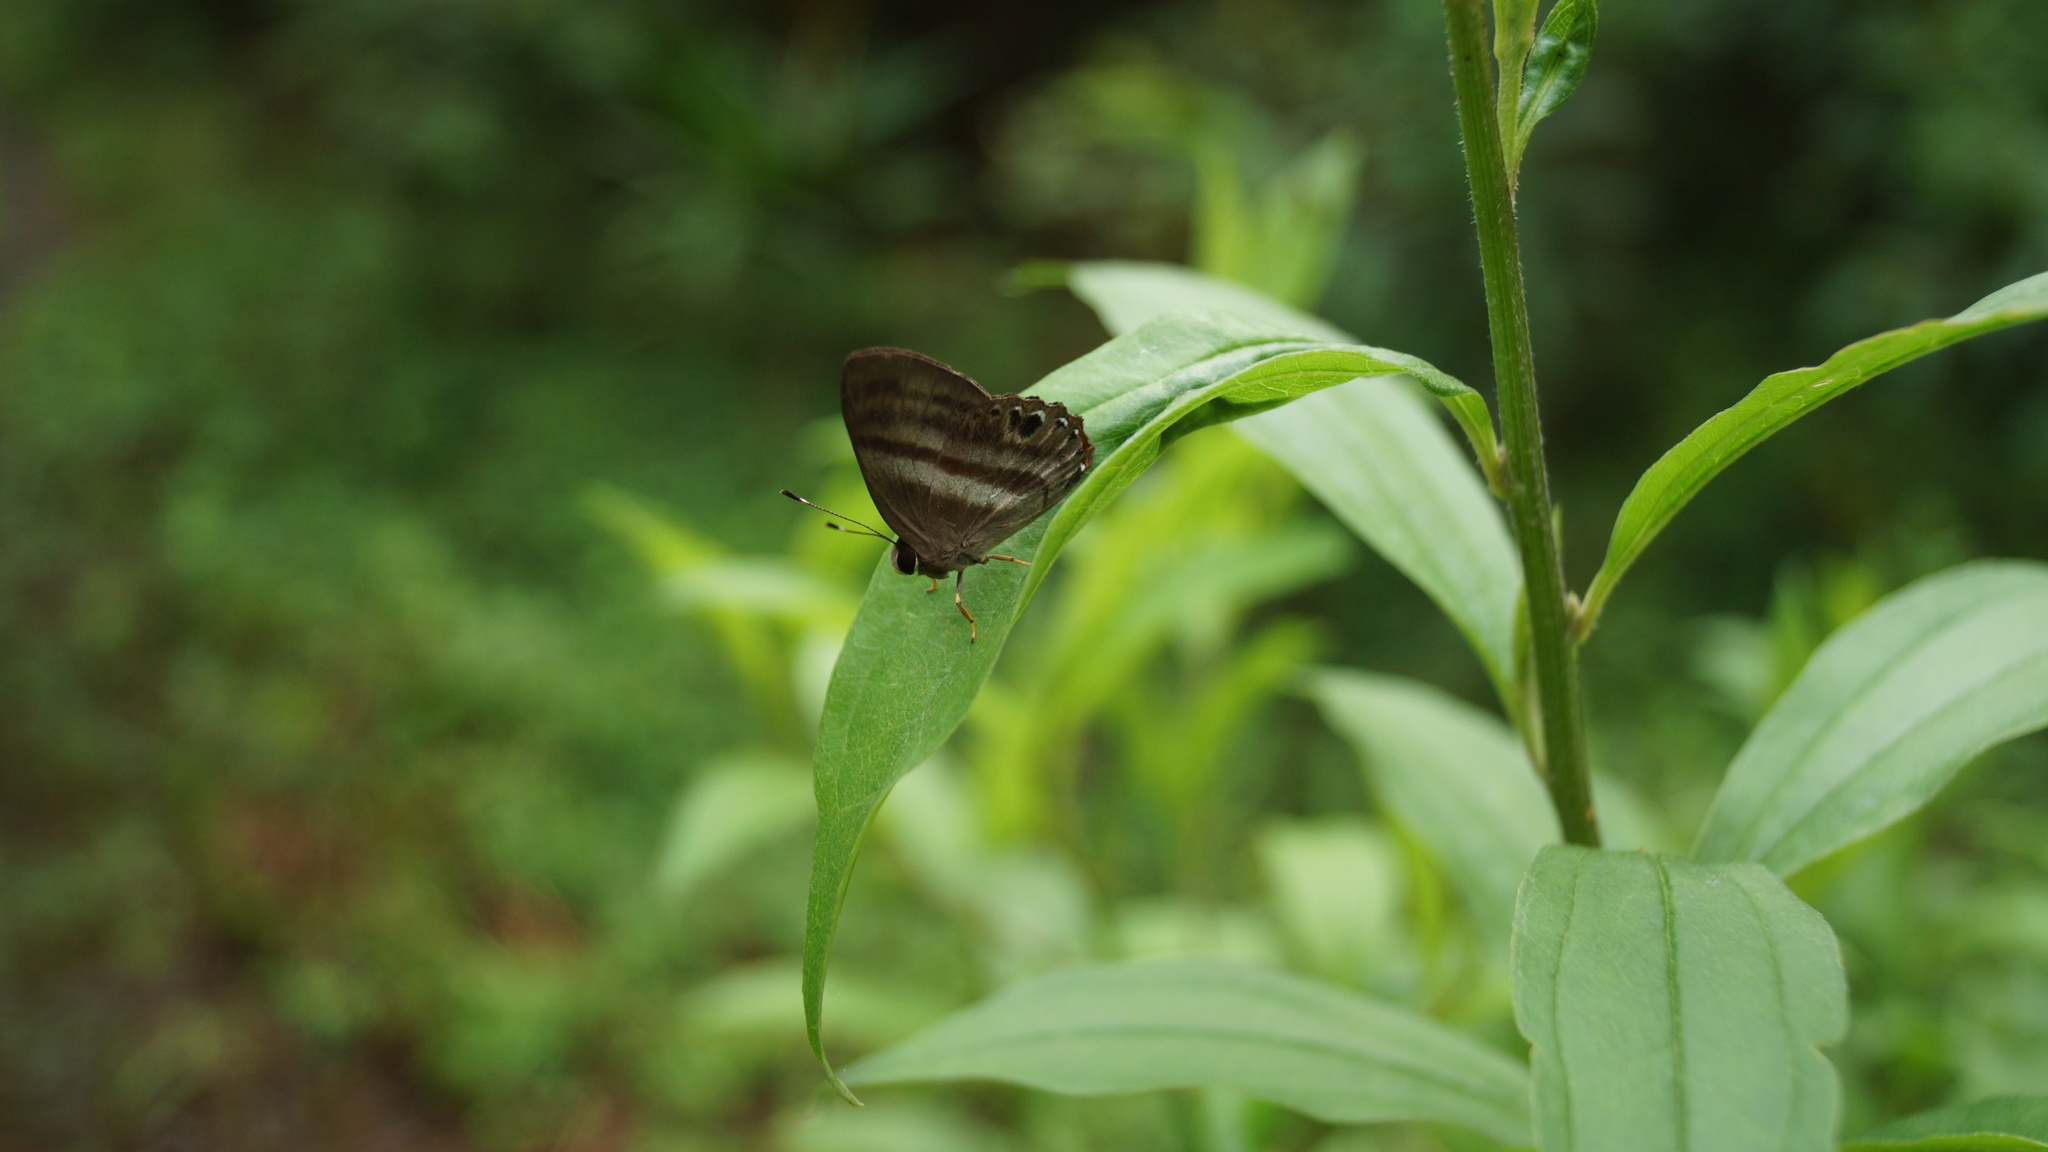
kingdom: Animalia
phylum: Arthropoda
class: Insecta
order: Lepidoptera
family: Riodinidae
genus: Pelolasia
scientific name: Pelolasia
